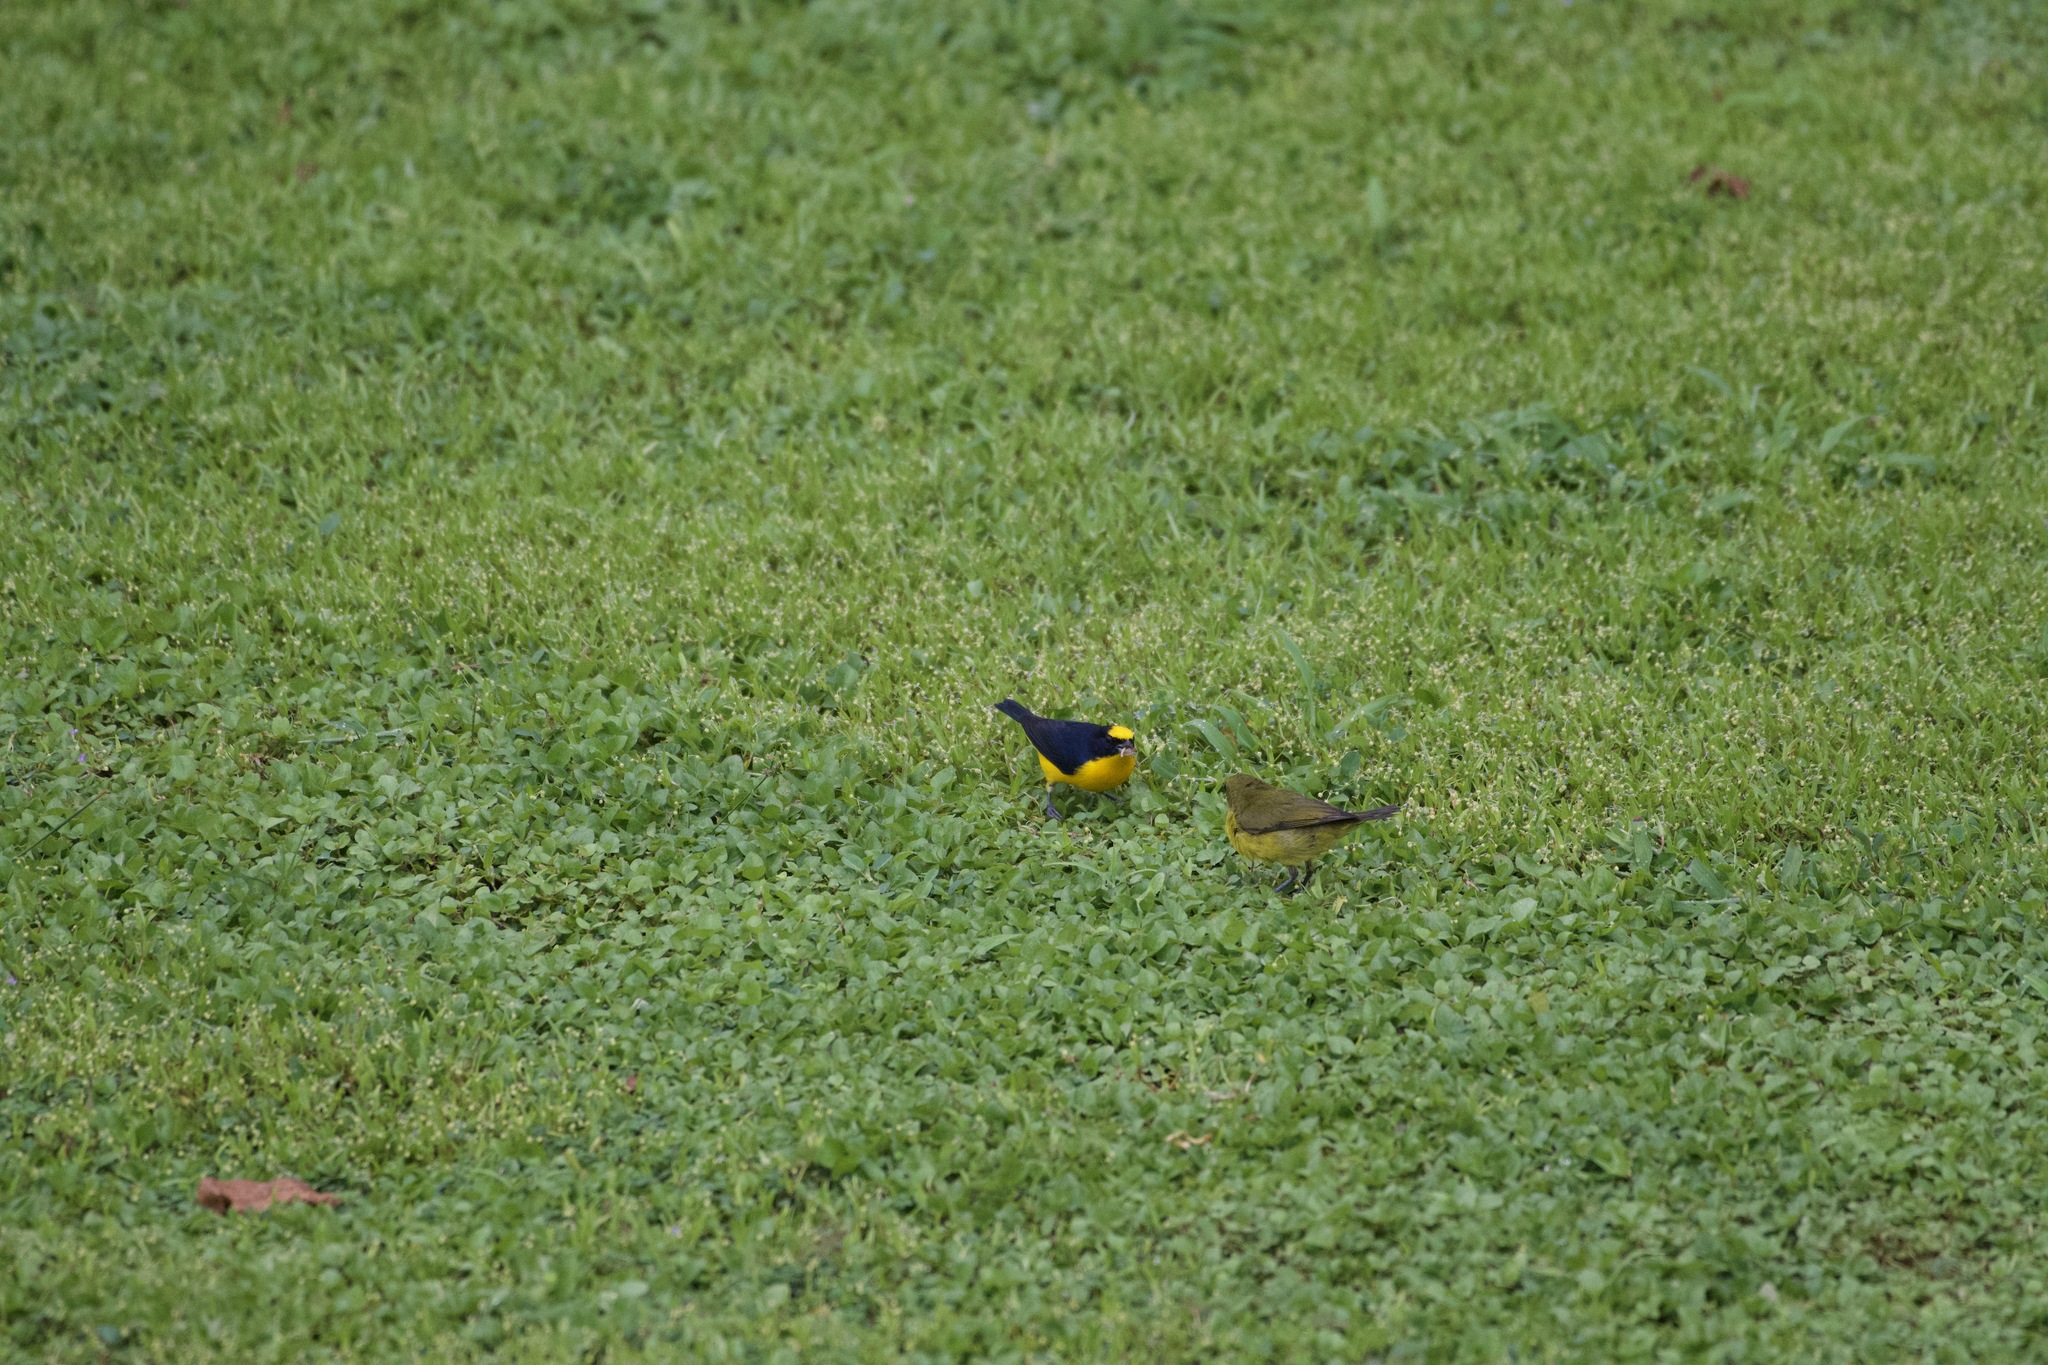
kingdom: Animalia
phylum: Chordata
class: Aves
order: Passeriformes
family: Fringillidae
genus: Euphonia
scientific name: Euphonia laniirostris
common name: Thick-billed euphonia
